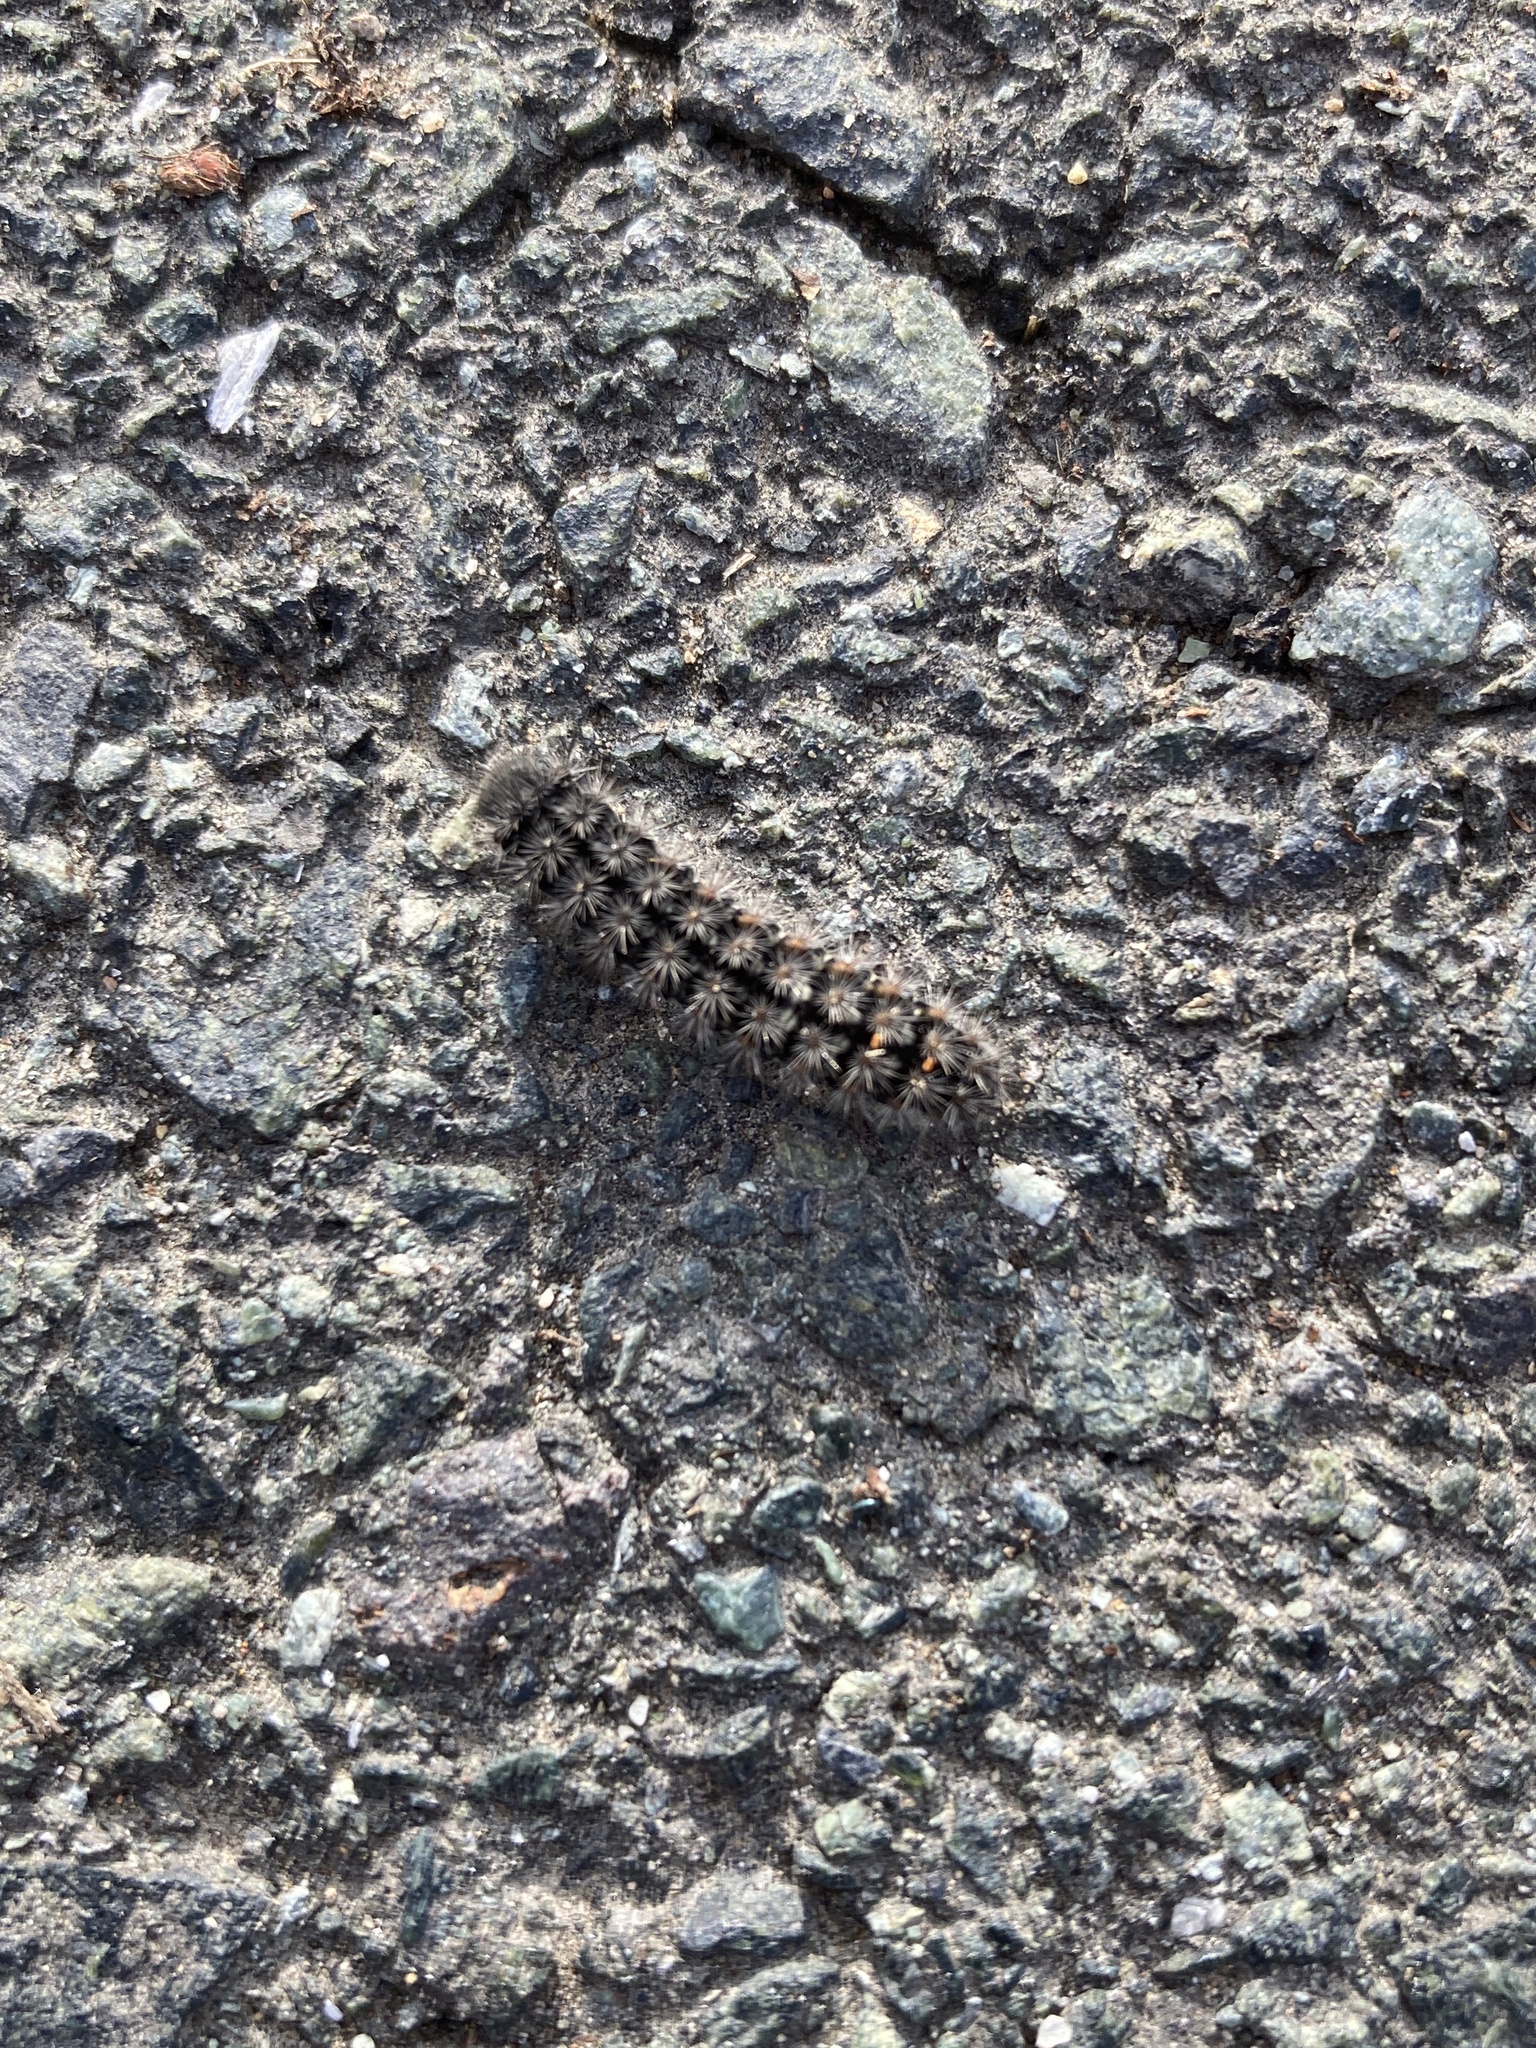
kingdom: Animalia
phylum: Arthropoda
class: Insecta
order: Lepidoptera
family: Erebidae
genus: Penthophera
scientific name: Penthophera morio
